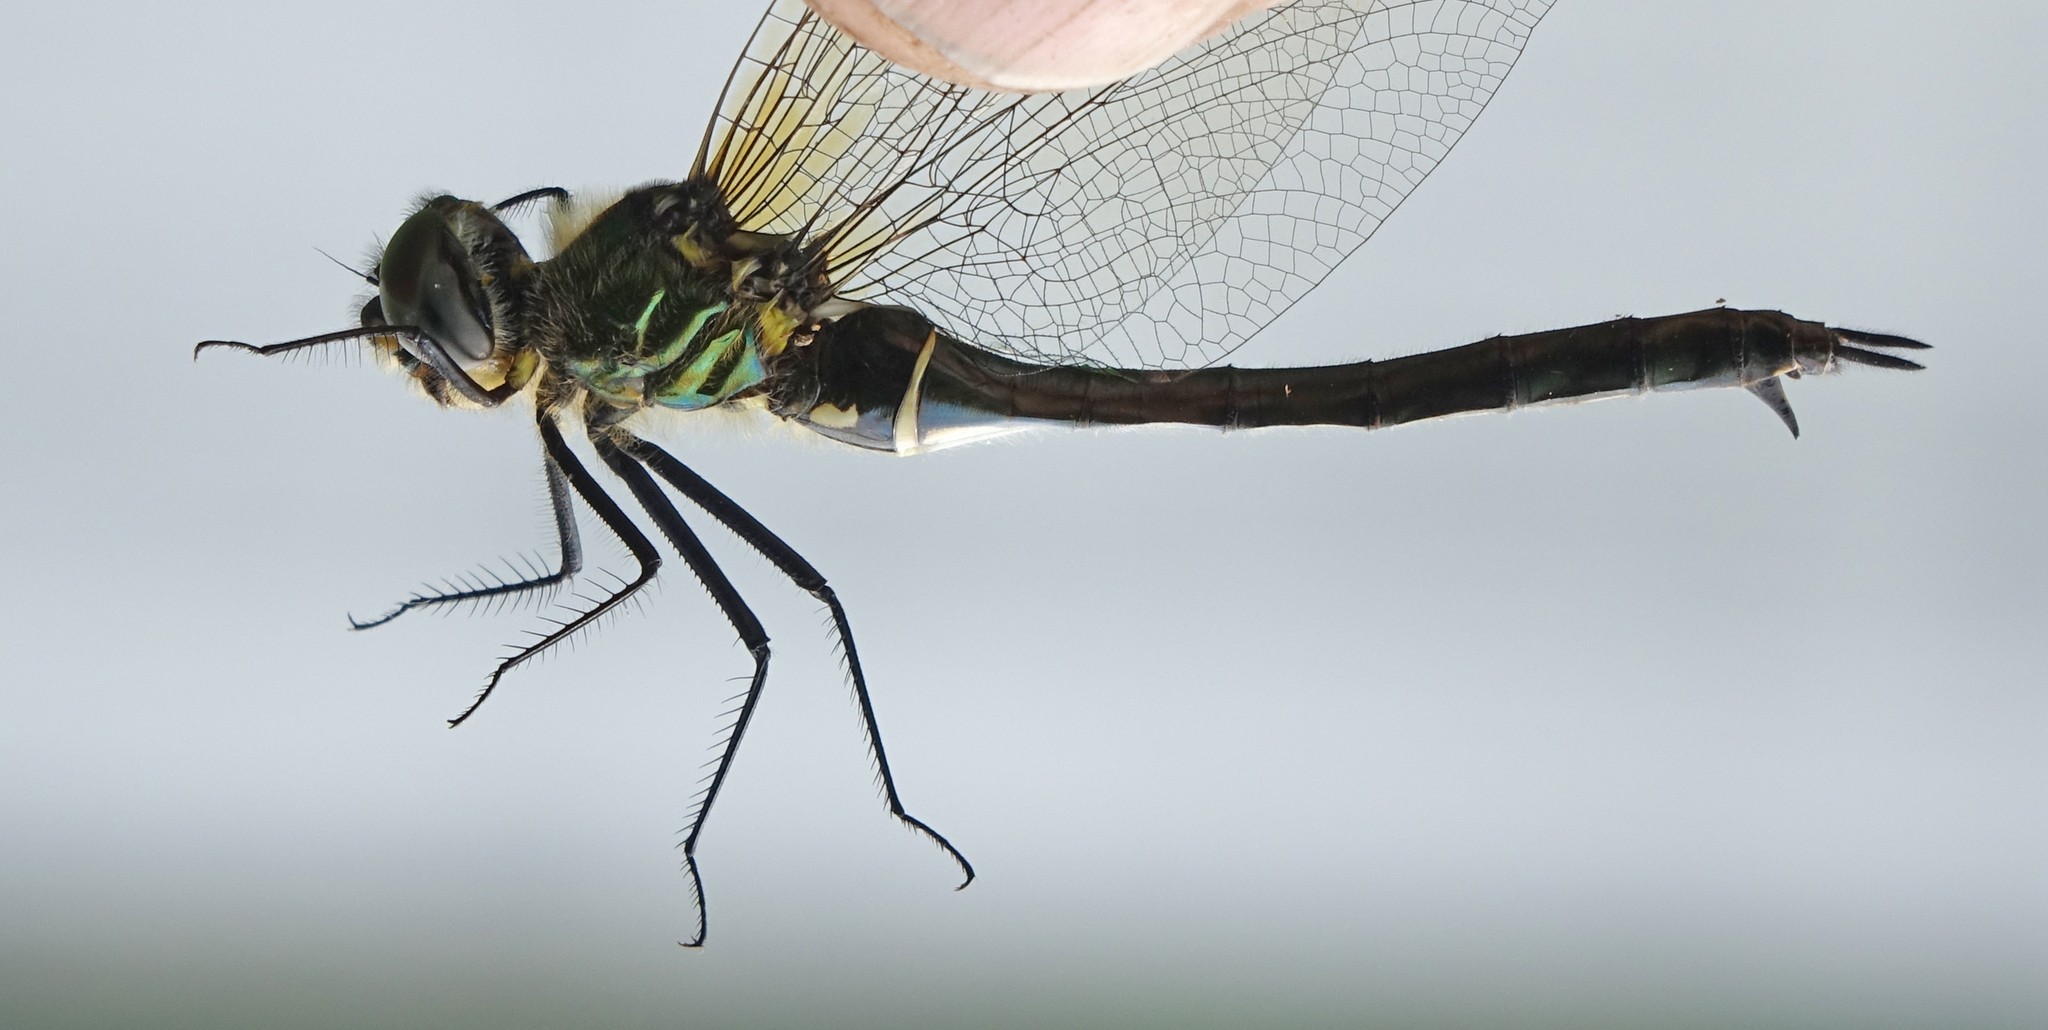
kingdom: Animalia
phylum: Arthropoda
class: Insecta
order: Odonata
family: Corduliidae
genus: Somatochlora
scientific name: Somatochlora exuberata
